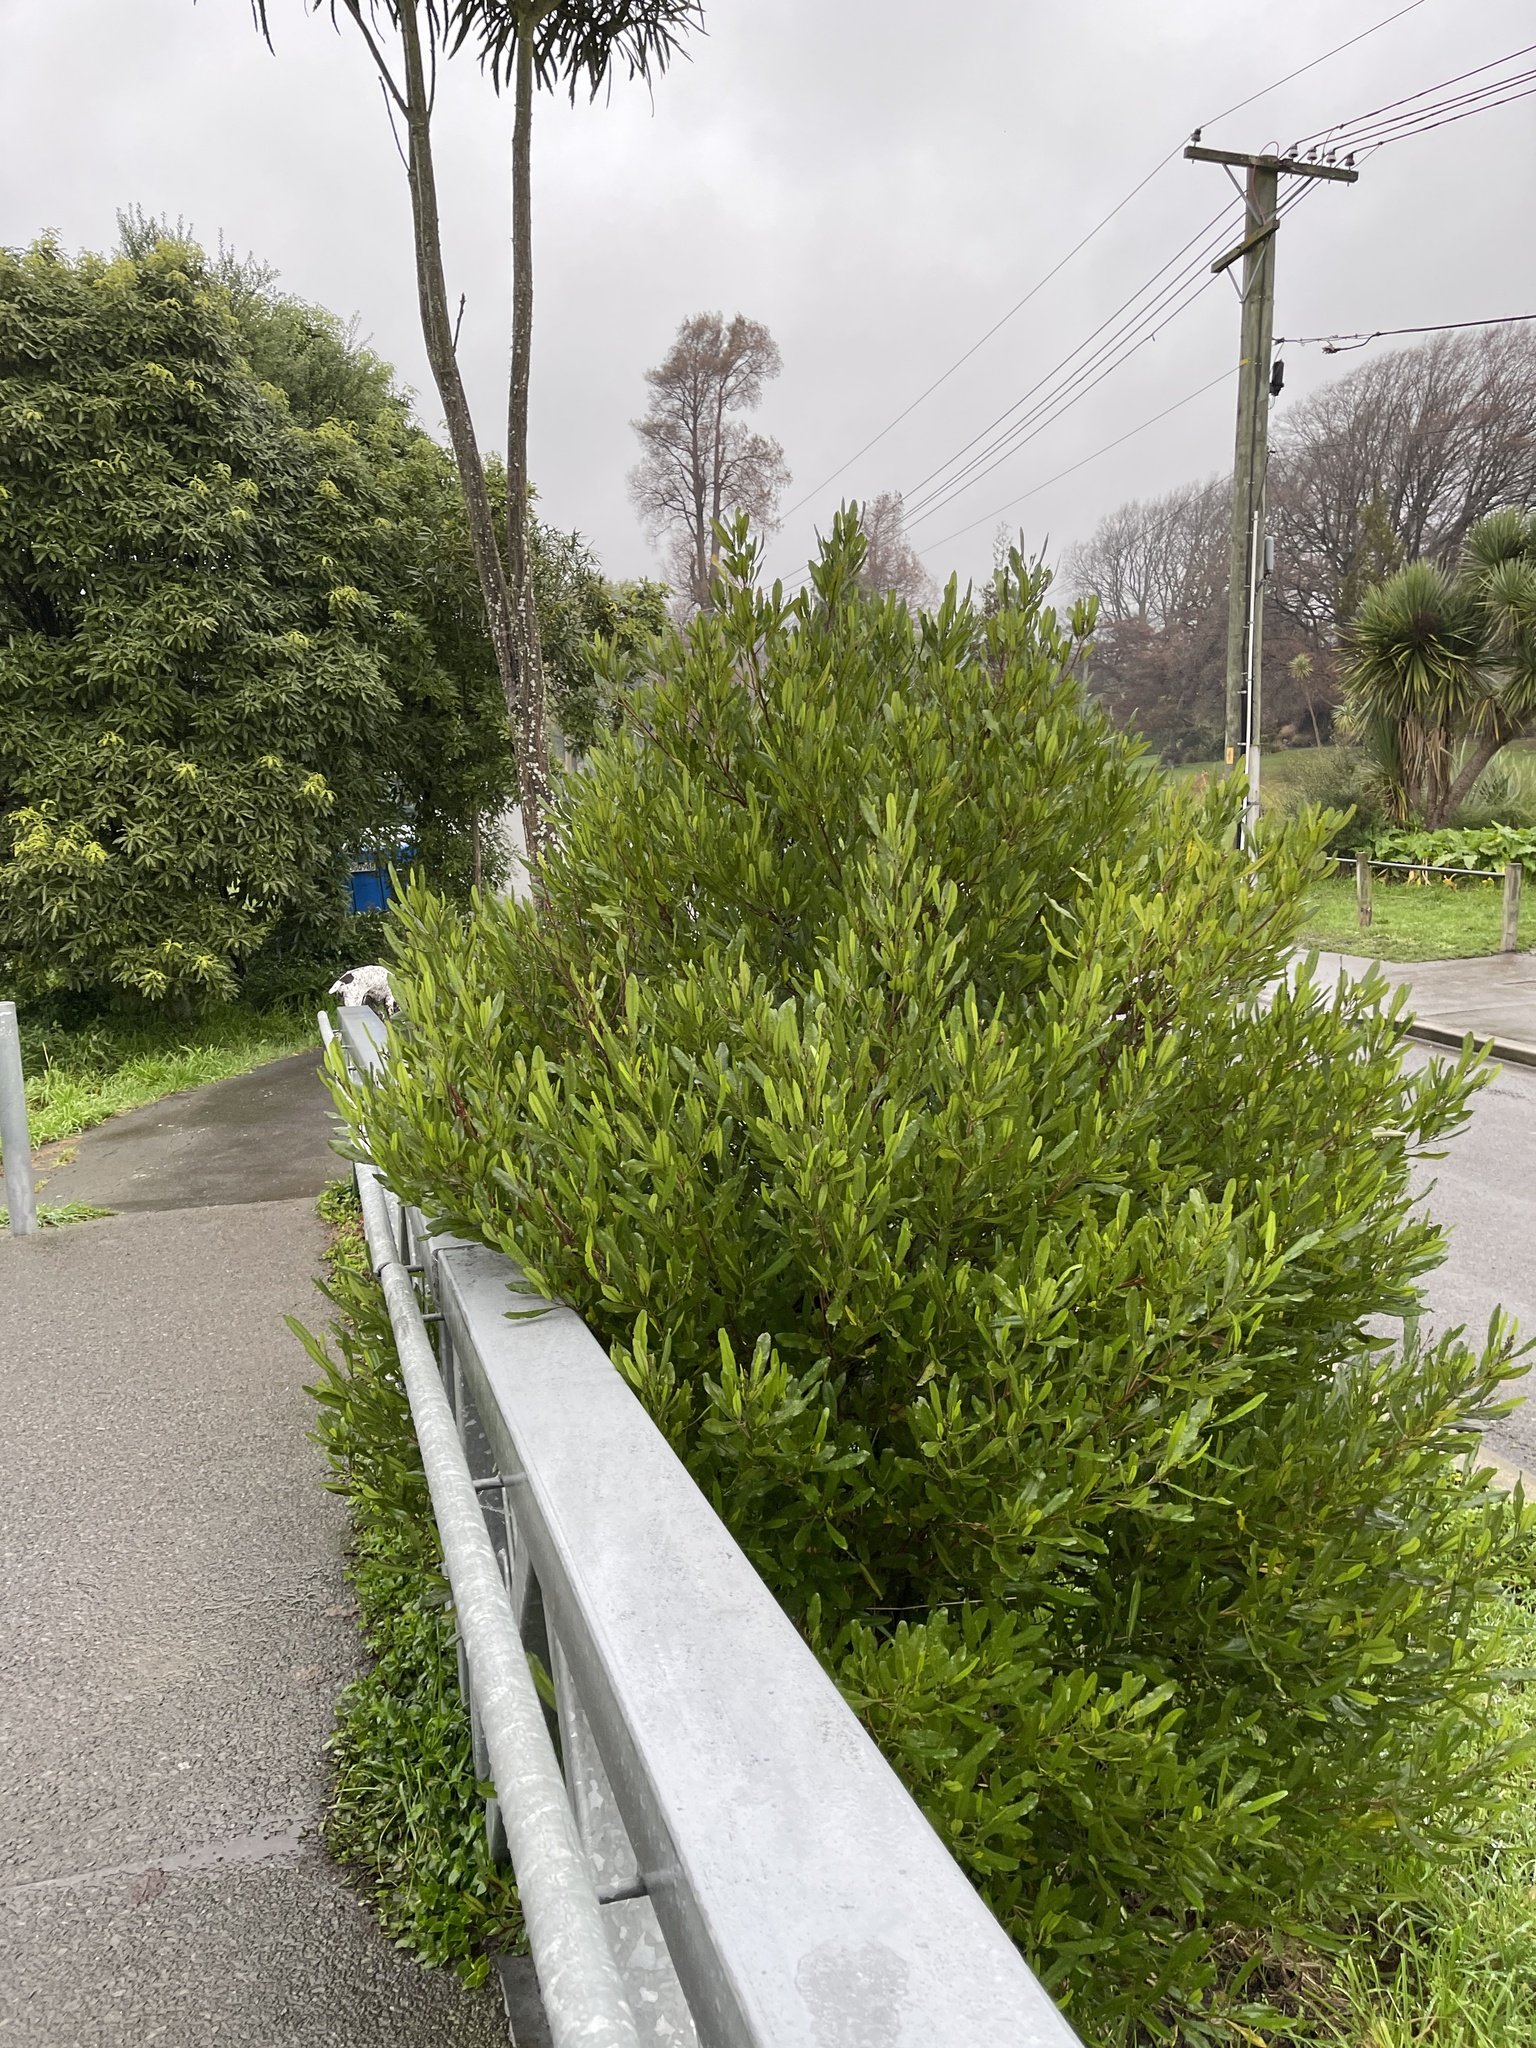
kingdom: Plantae
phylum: Tracheophyta
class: Magnoliopsida
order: Sapindales
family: Sapindaceae
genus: Dodonaea
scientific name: Dodonaea viscosa
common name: Hopbush
